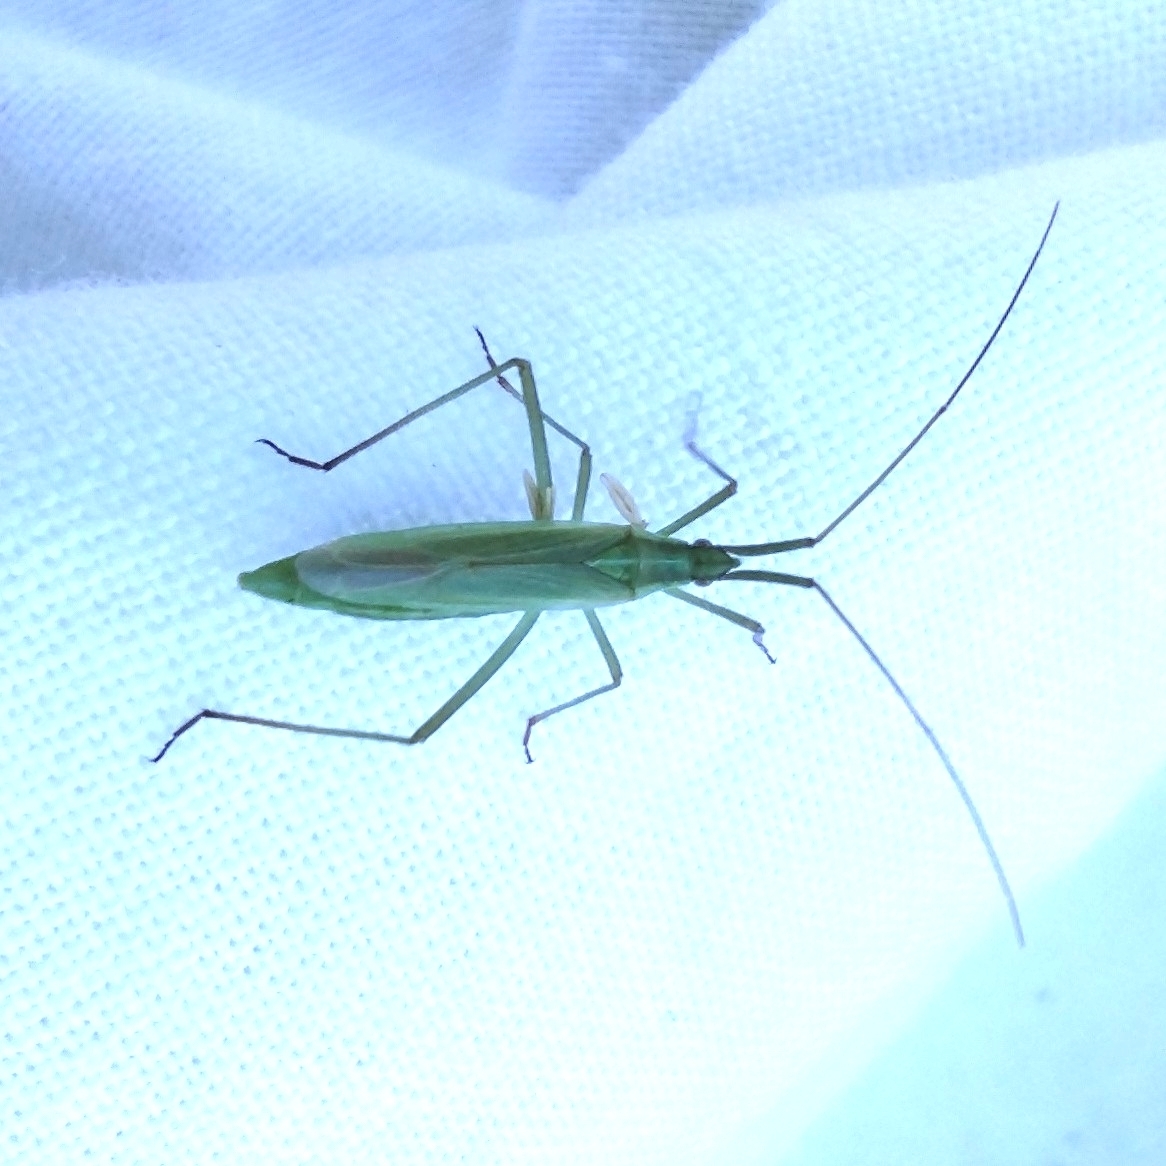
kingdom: Animalia
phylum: Arthropoda
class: Insecta
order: Hemiptera
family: Miridae
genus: Megaloceroea
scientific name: Megaloceroea recticornis
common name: Plant bug
